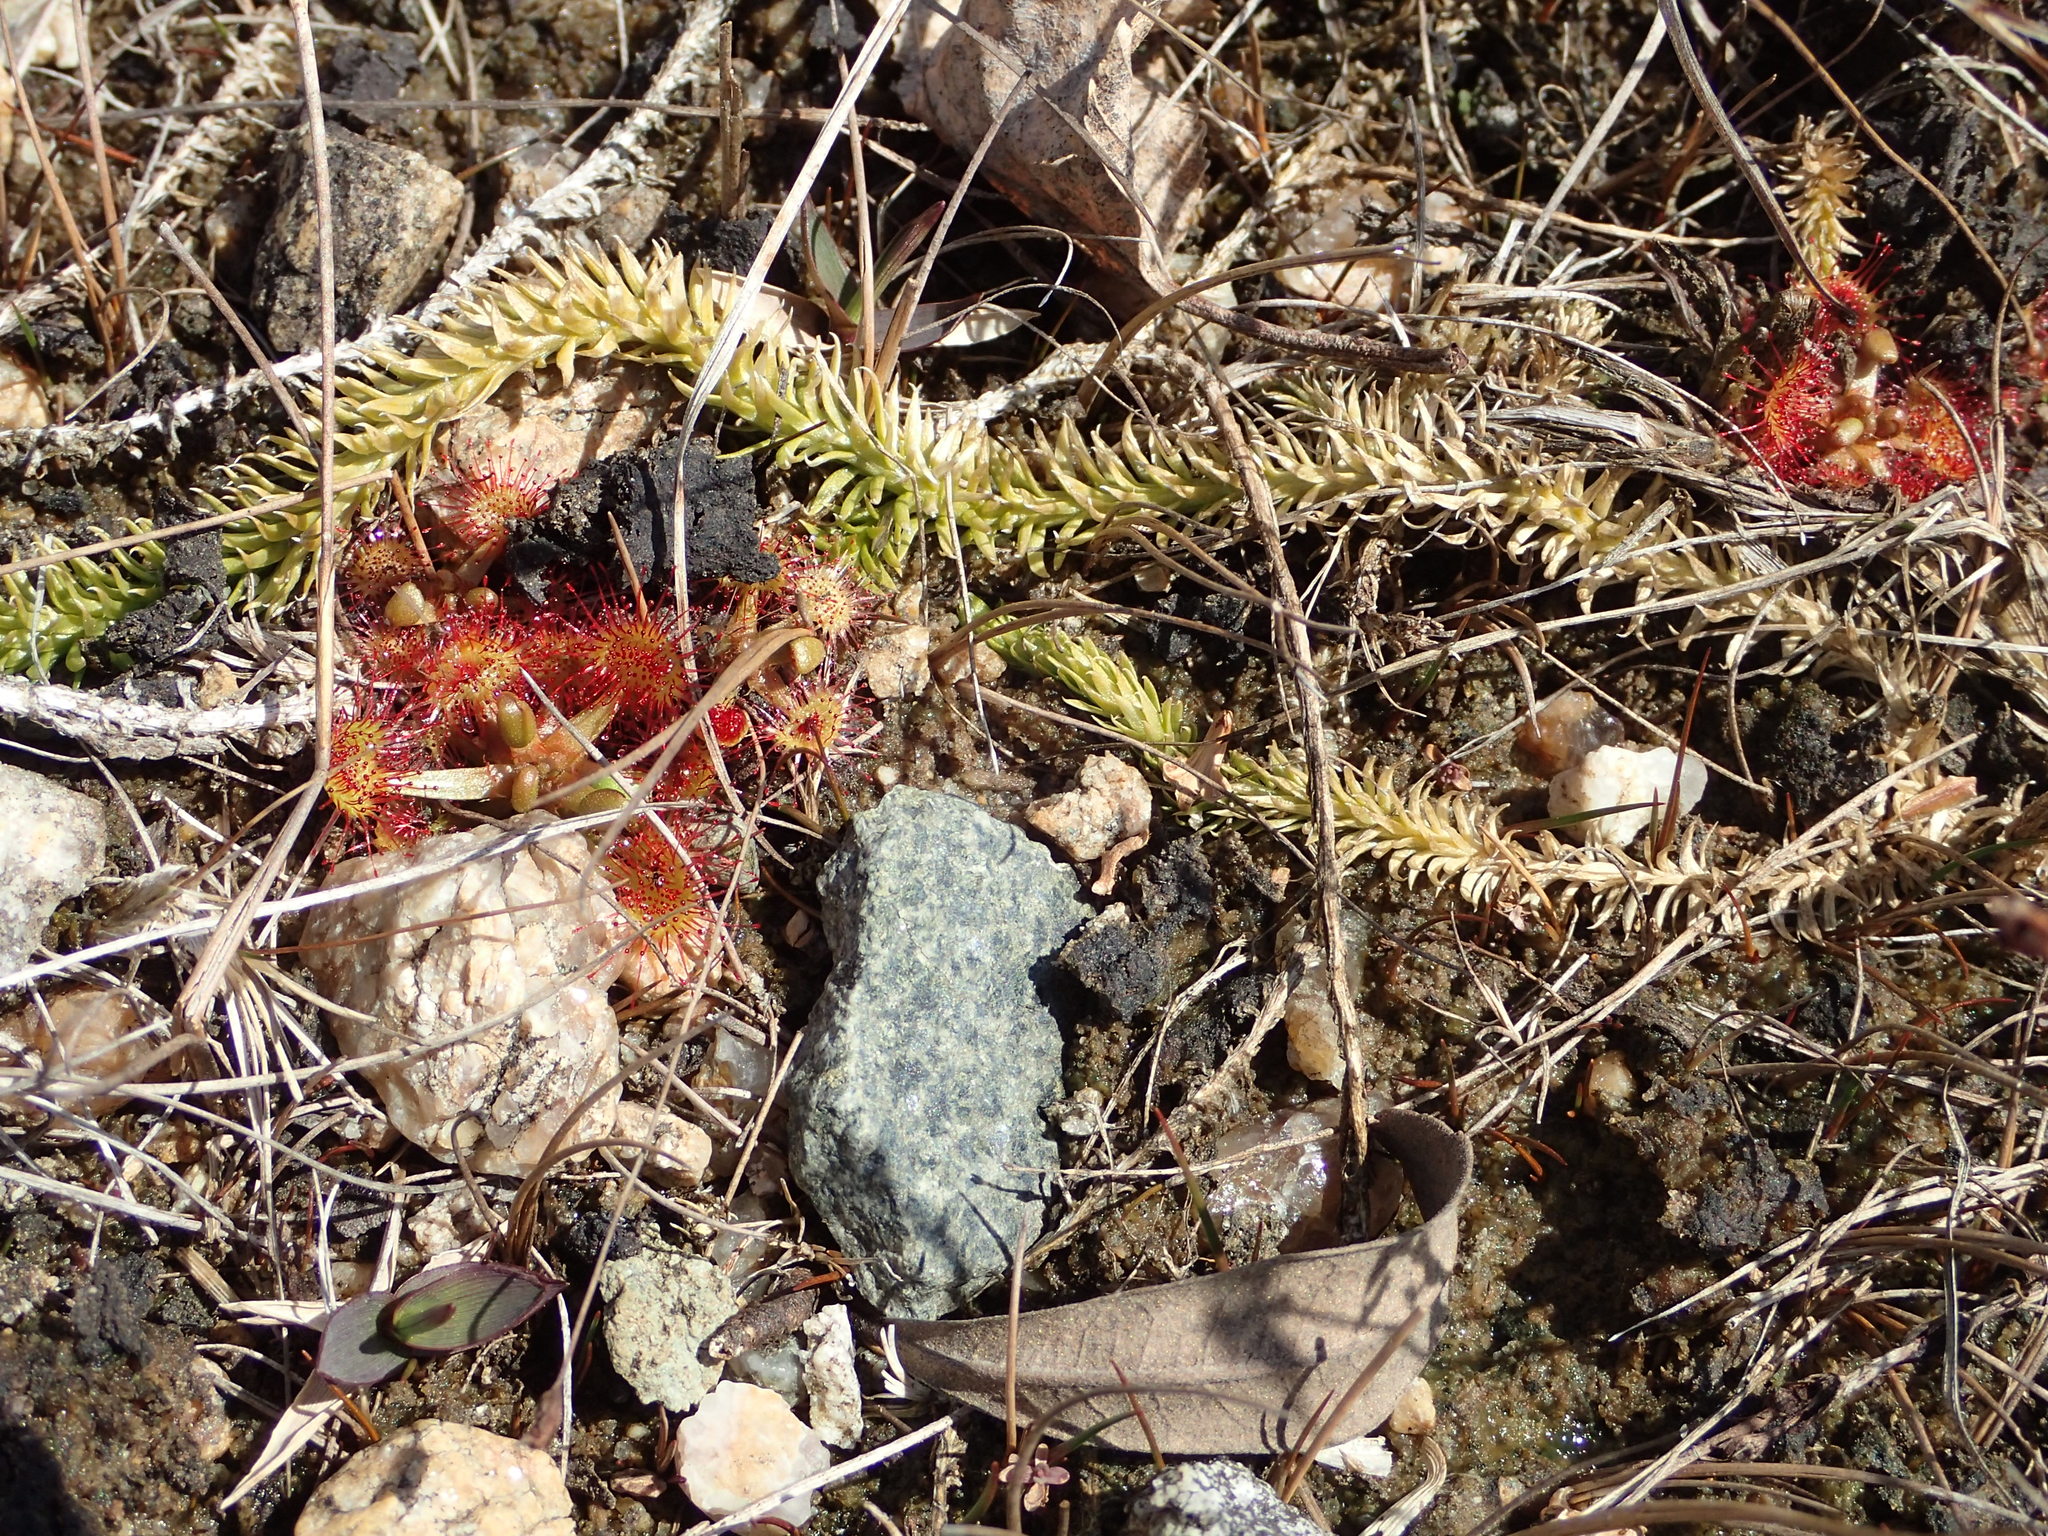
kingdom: Plantae
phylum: Tracheophyta
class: Magnoliopsida
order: Caryophyllales
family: Droseraceae
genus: Drosera
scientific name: Drosera rotundifolia
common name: Round-leaved sundew
